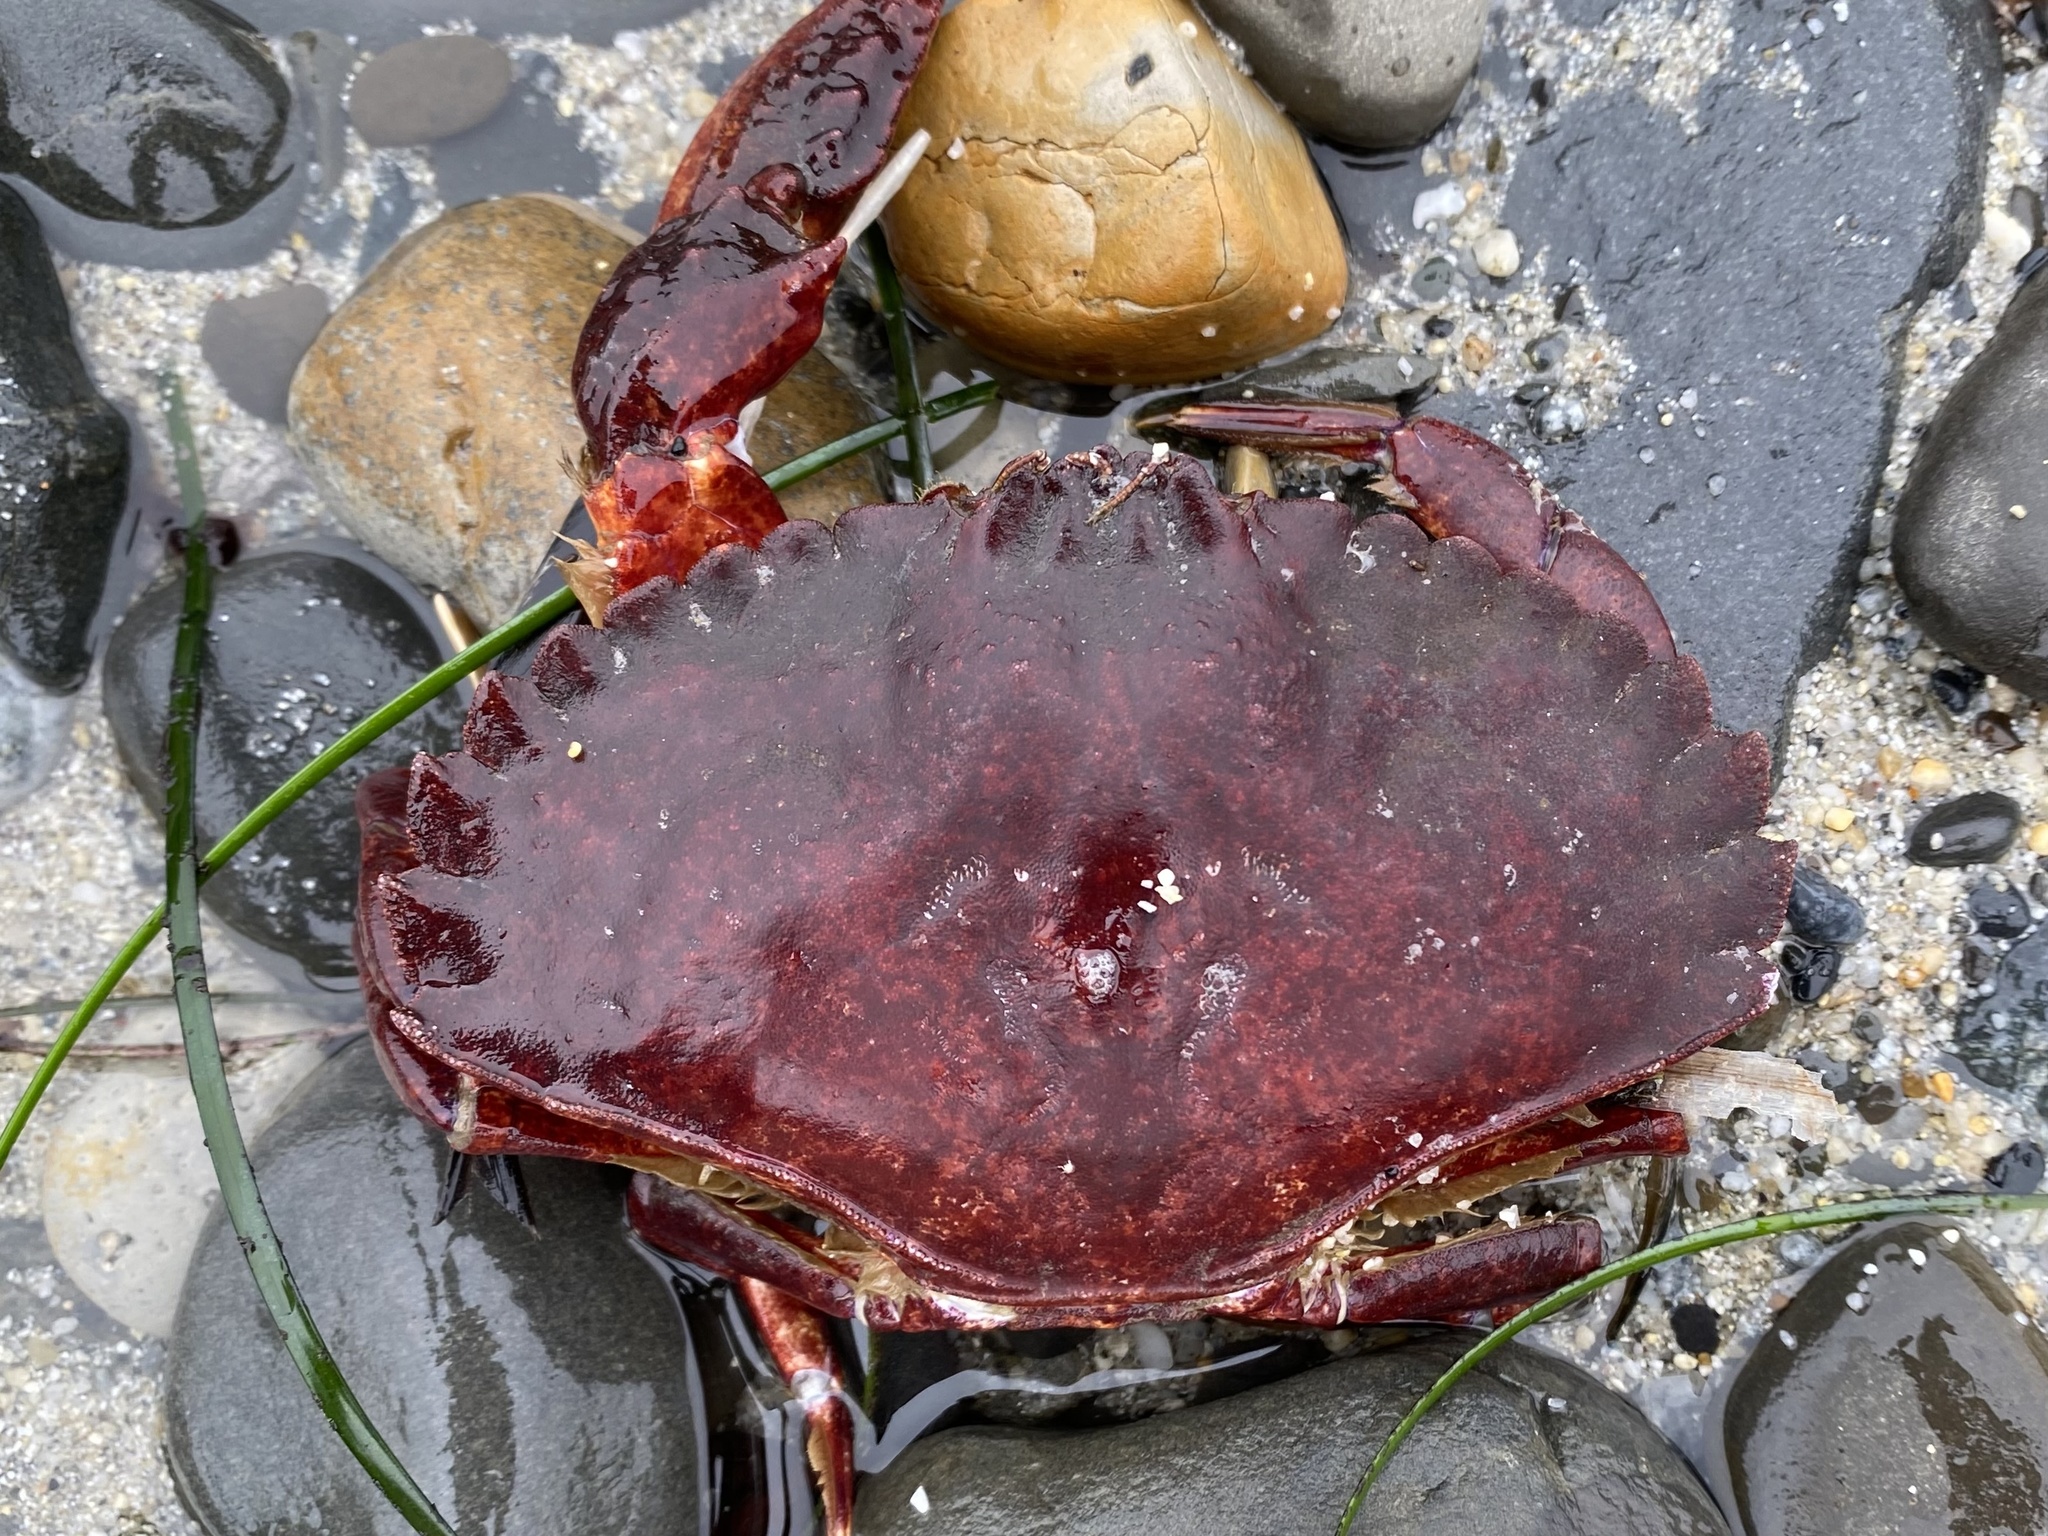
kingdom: Animalia
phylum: Arthropoda
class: Malacostraca
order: Decapoda
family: Cancridae
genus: Cancer
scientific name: Cancer productus
